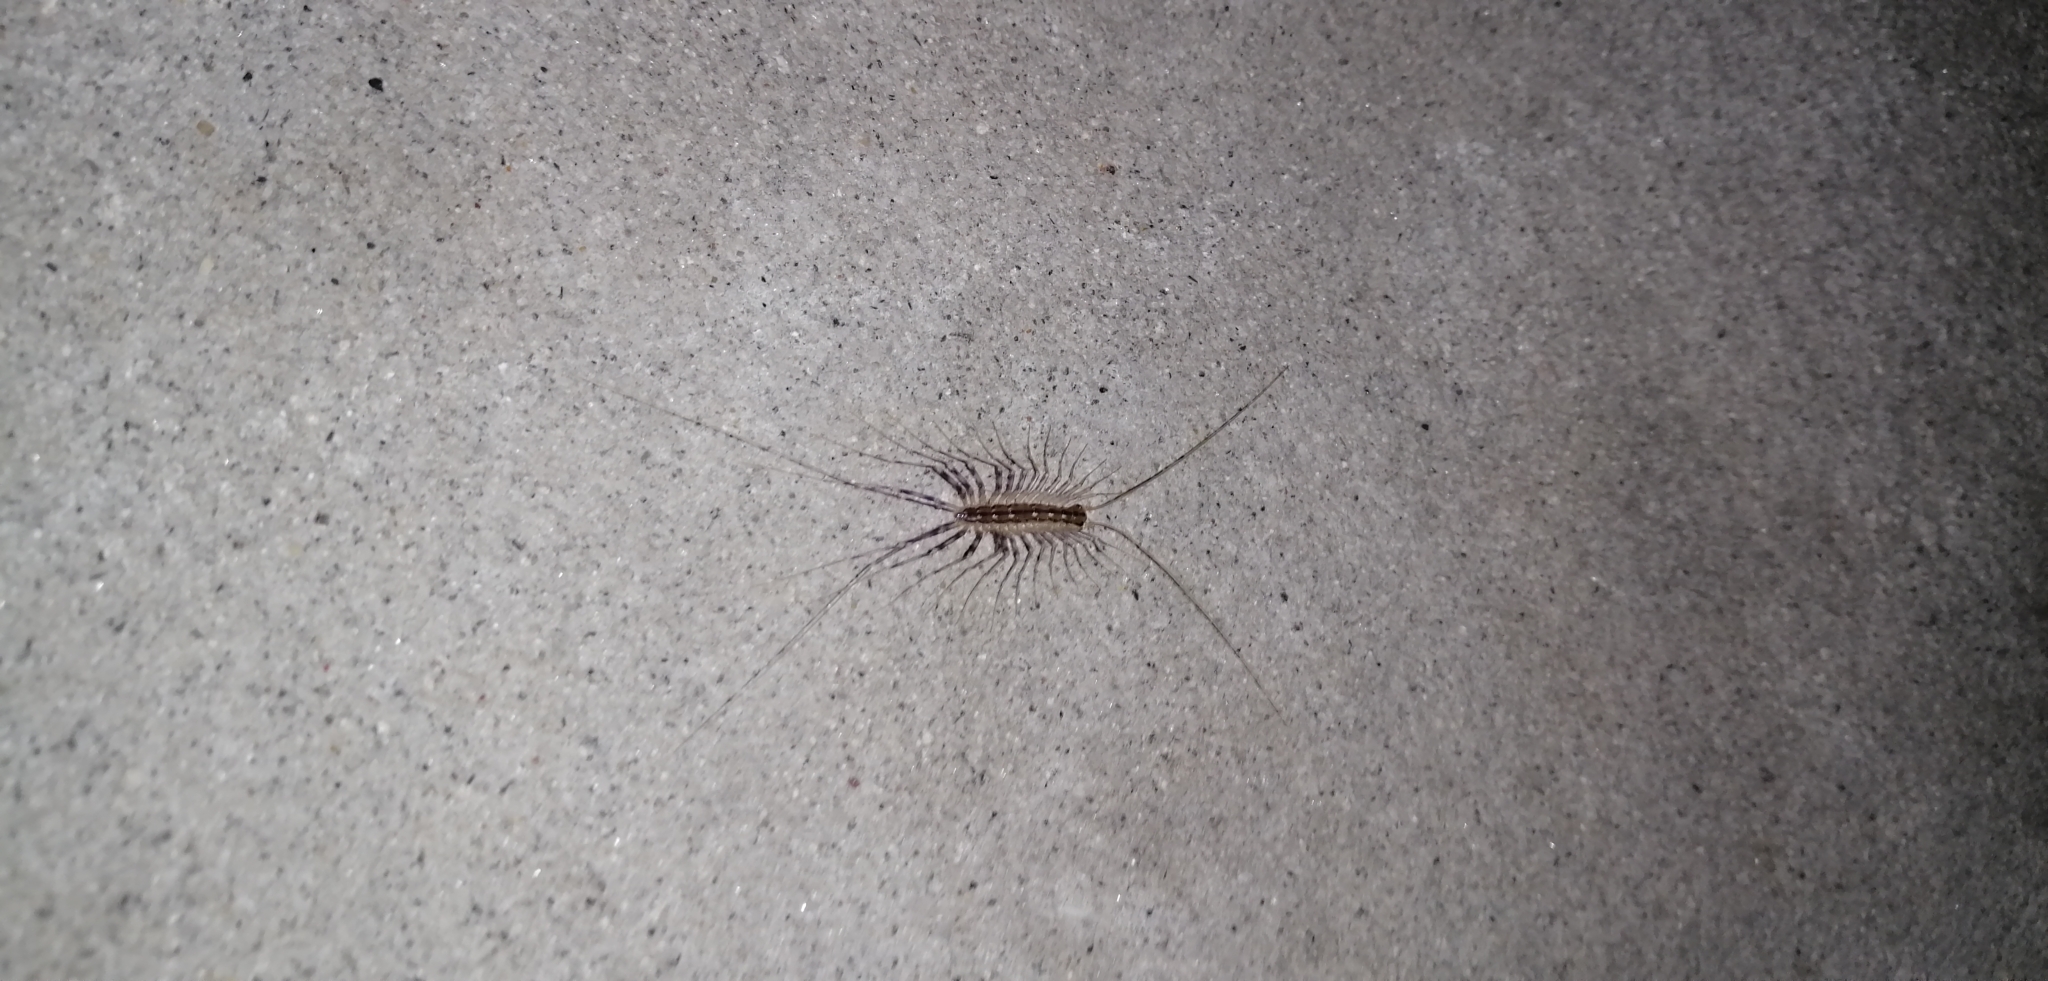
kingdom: Animalia
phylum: Arthropoda
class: Chilopoda
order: Scutigeromorpha
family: Scutigeridae
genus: Scutigera
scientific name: Scutigera coleoptrata
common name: House centipede
